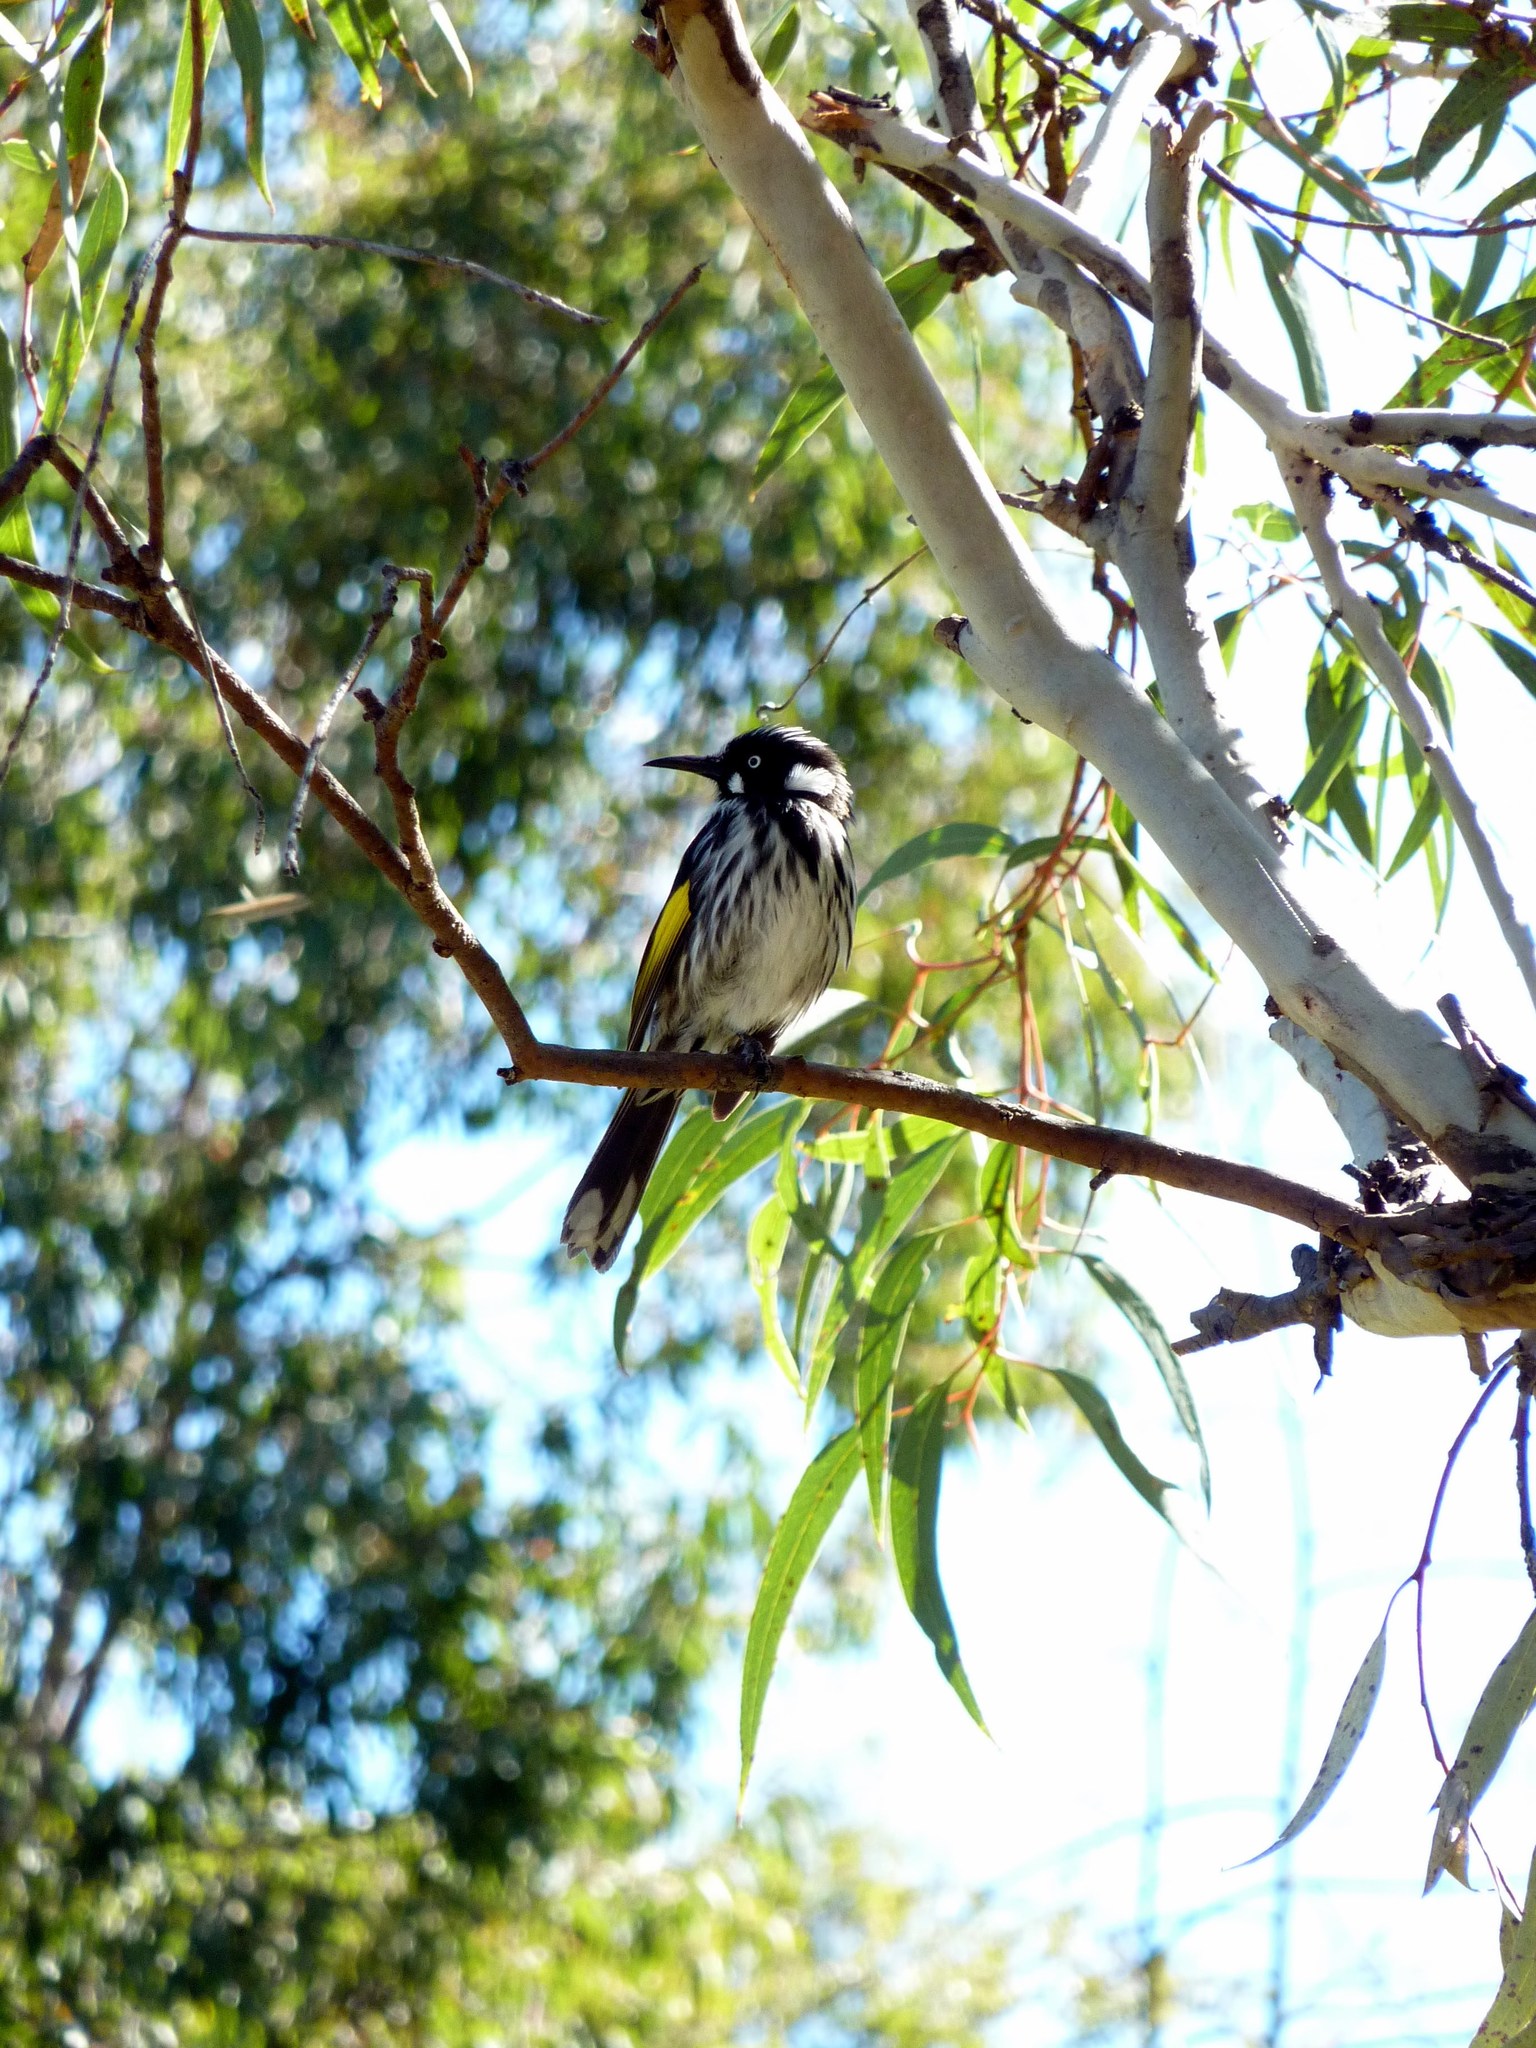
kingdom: Animalia
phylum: Chordata
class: Aves
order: Passeriformes
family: Meliphagidae
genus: Phylidonyris
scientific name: Phylidonyris novaehollandiae
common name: New holland honeyeater
